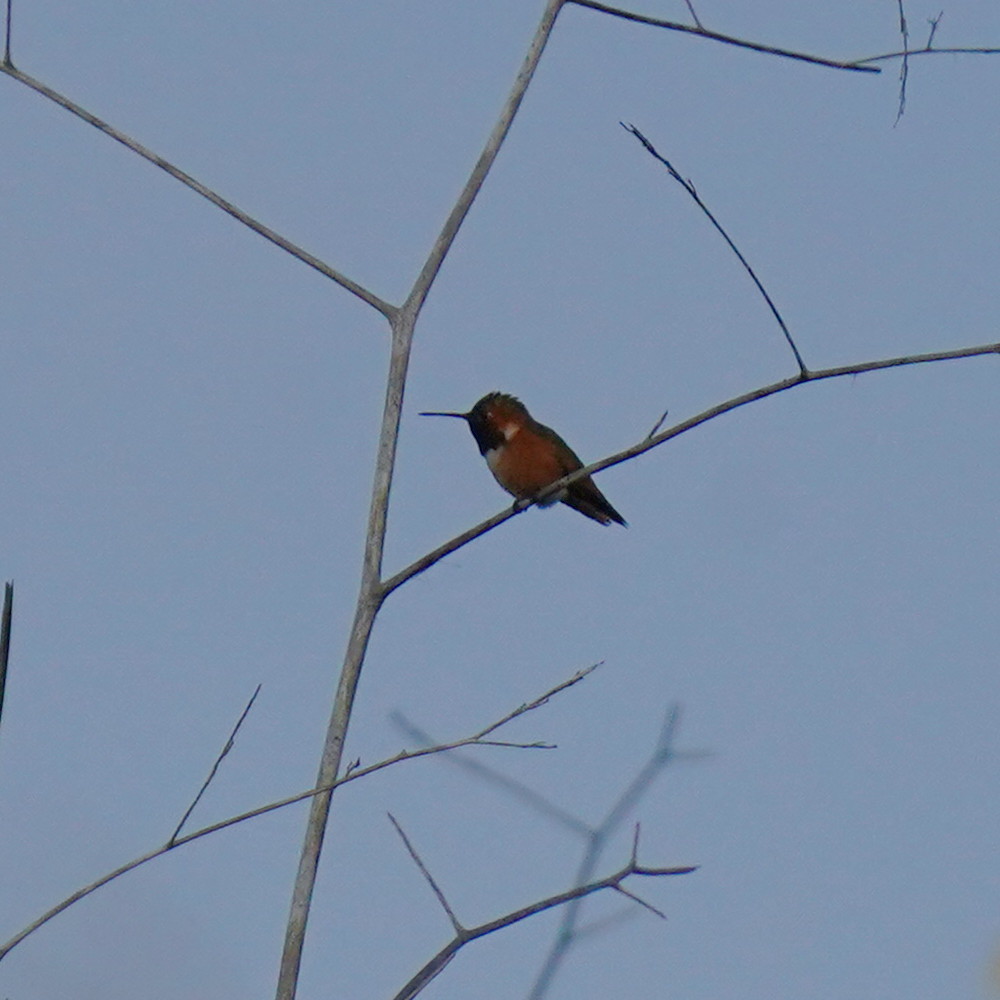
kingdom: Animalia
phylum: Chordata
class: Aves
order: Apodiformes
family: Trochilidae
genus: Selasphorus
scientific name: Selasphorus sasin
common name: Allen's hummingbird
